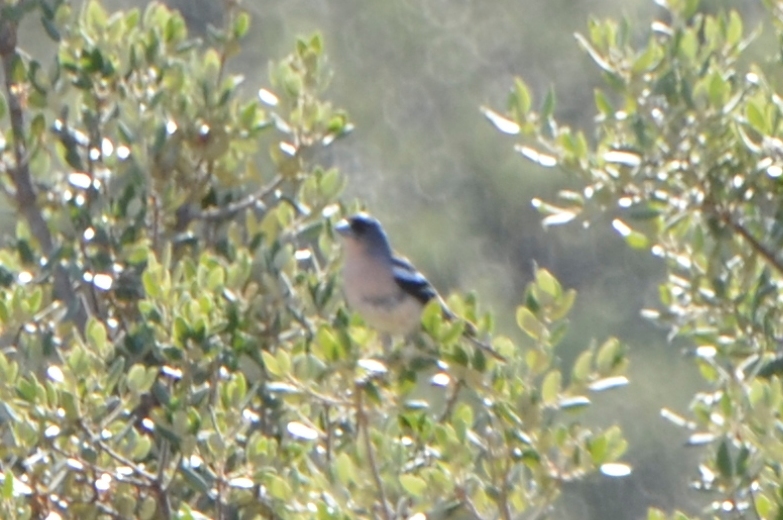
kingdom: Animalia
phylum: Chordata
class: Aves
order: Passeriformes
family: Fringillidae
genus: Fringilla
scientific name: Fringilla spodiogenys
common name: African chaffinch
